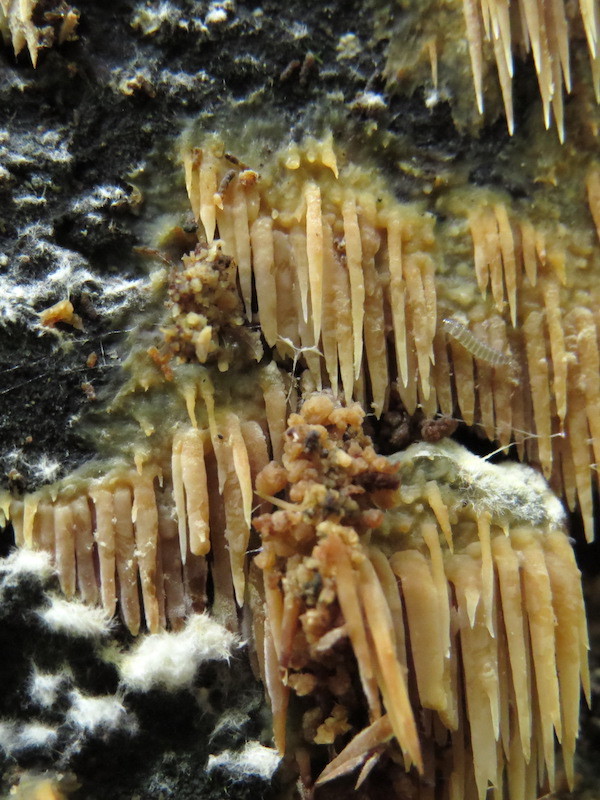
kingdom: Fungi
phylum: Basidiomycota
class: Agaricomycetes
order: Agaricales
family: Radulomycetaceae
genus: Radulomyces
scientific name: Radulomyces copelandii
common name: Asian beauty
